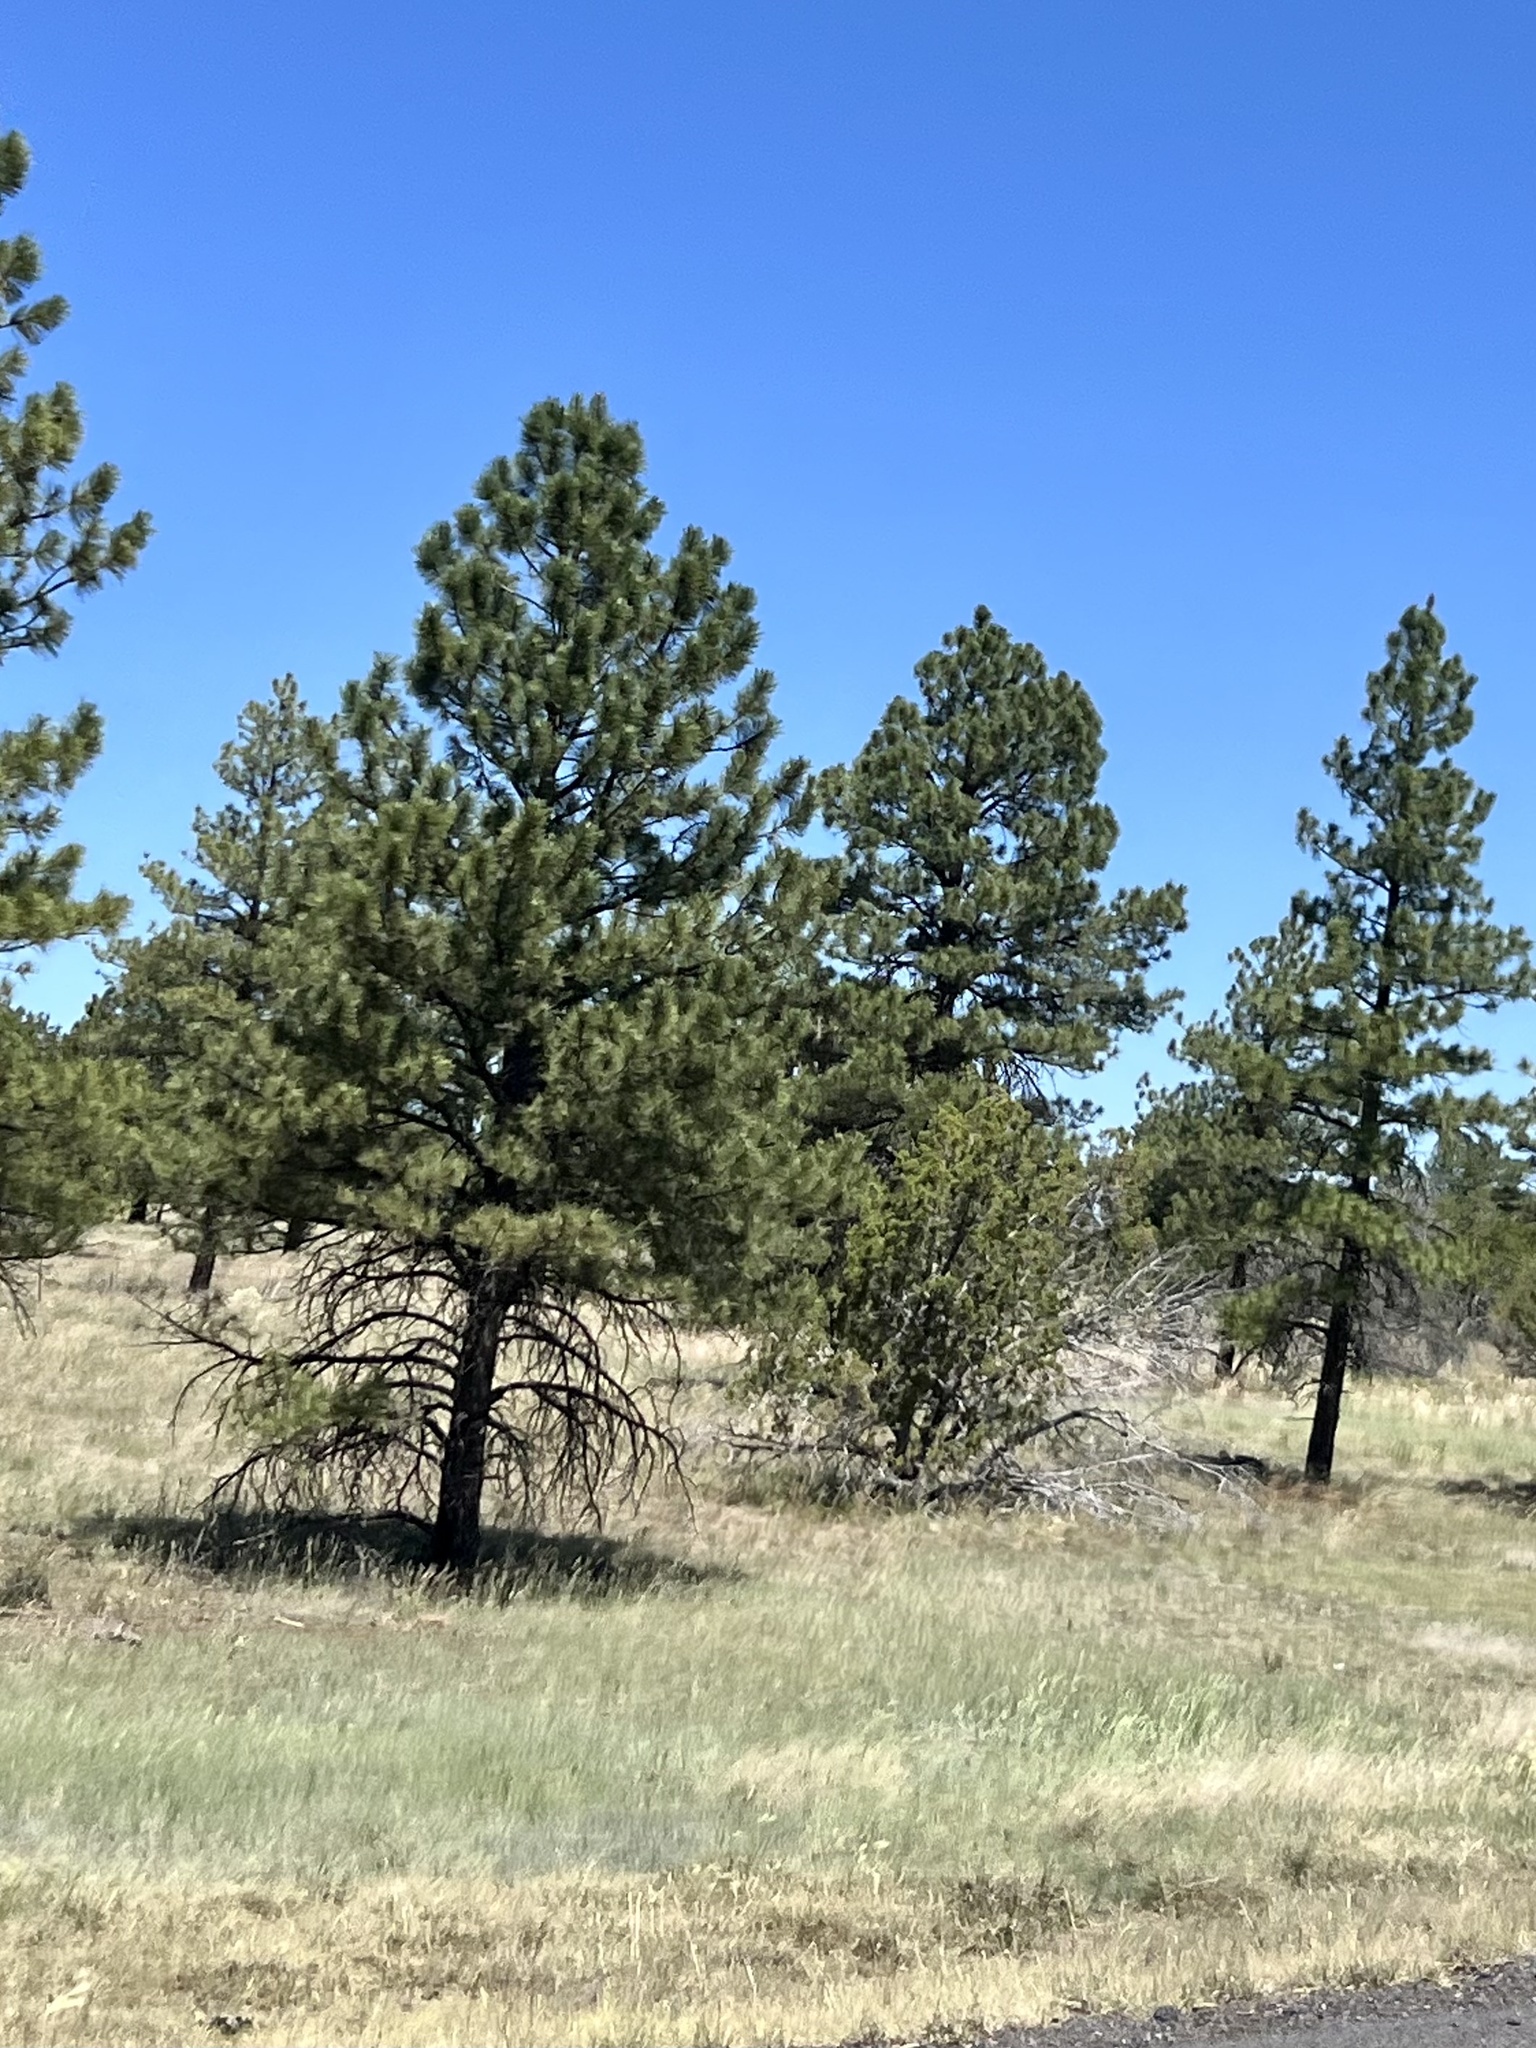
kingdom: Plantae
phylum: Tracheophyta
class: Pinopsida
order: Pinales
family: Pinaceae
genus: Pinus
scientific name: Pinus ponderosa
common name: Western yellow-pine
